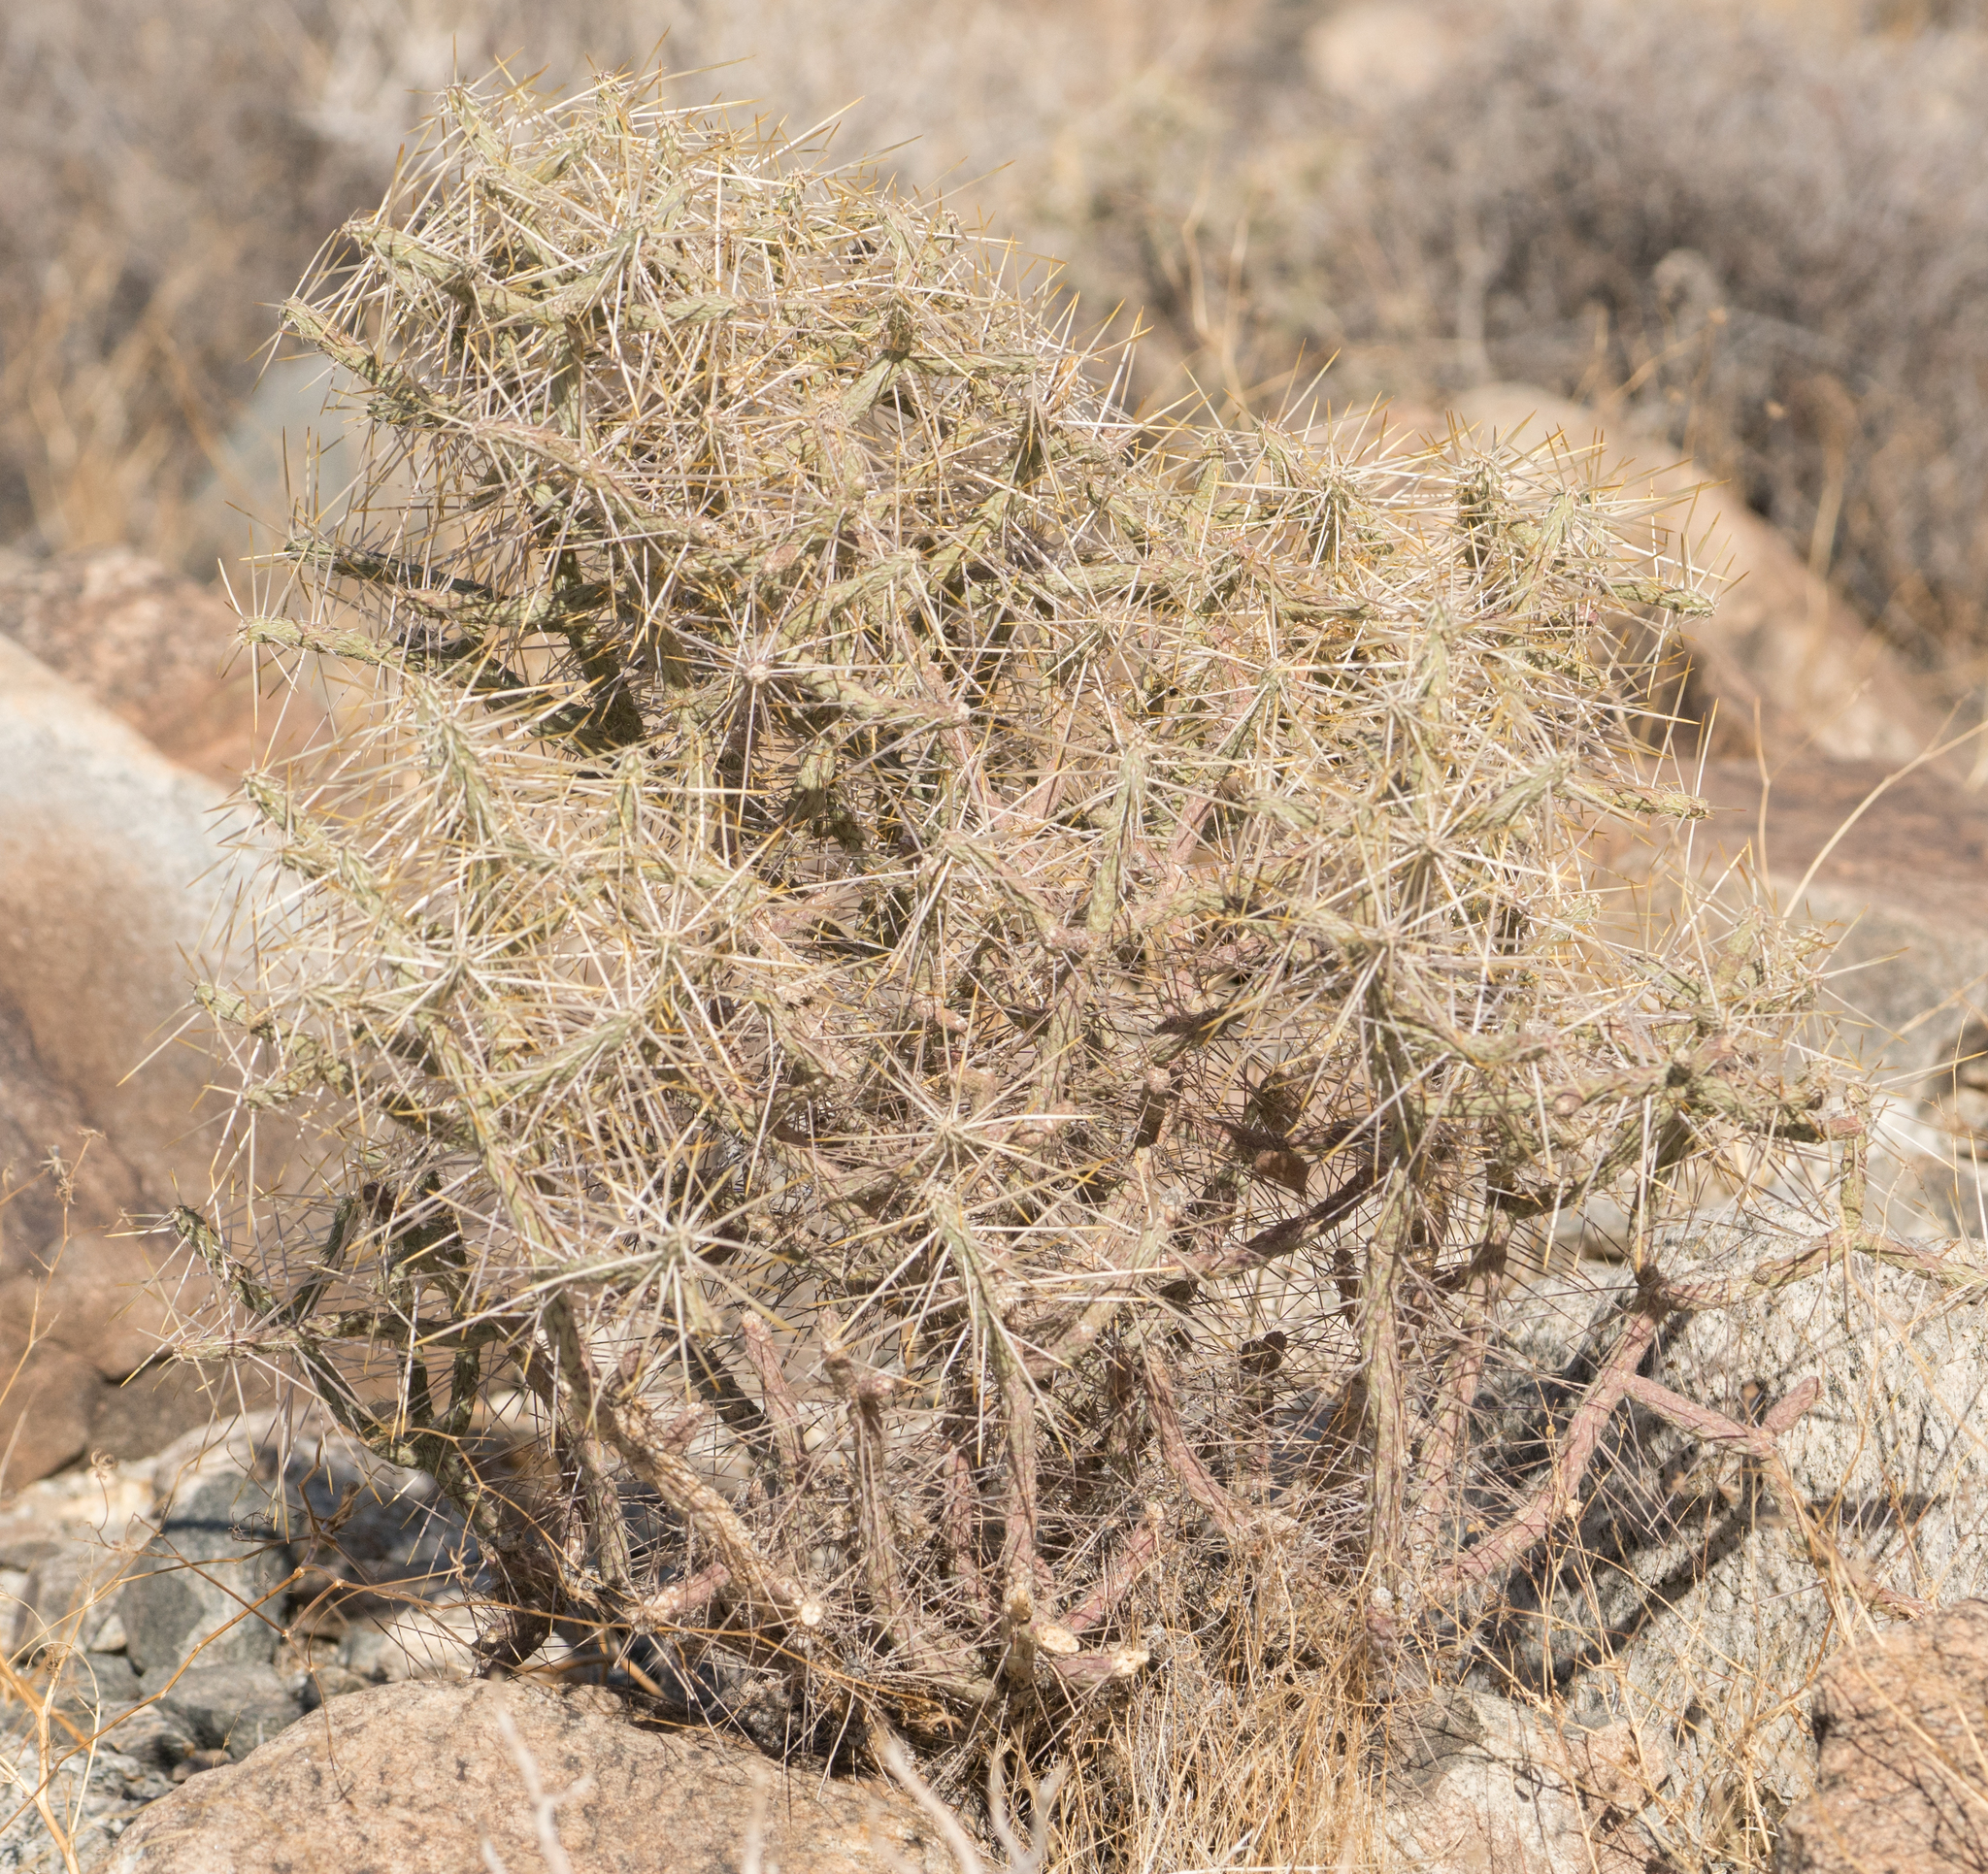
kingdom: Plantae
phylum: Tracheophyta
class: Magnoliopsida
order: Caryophyllales
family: Cactaceae
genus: Cylindropuntia
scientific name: Cylindropuntia ramosissima
